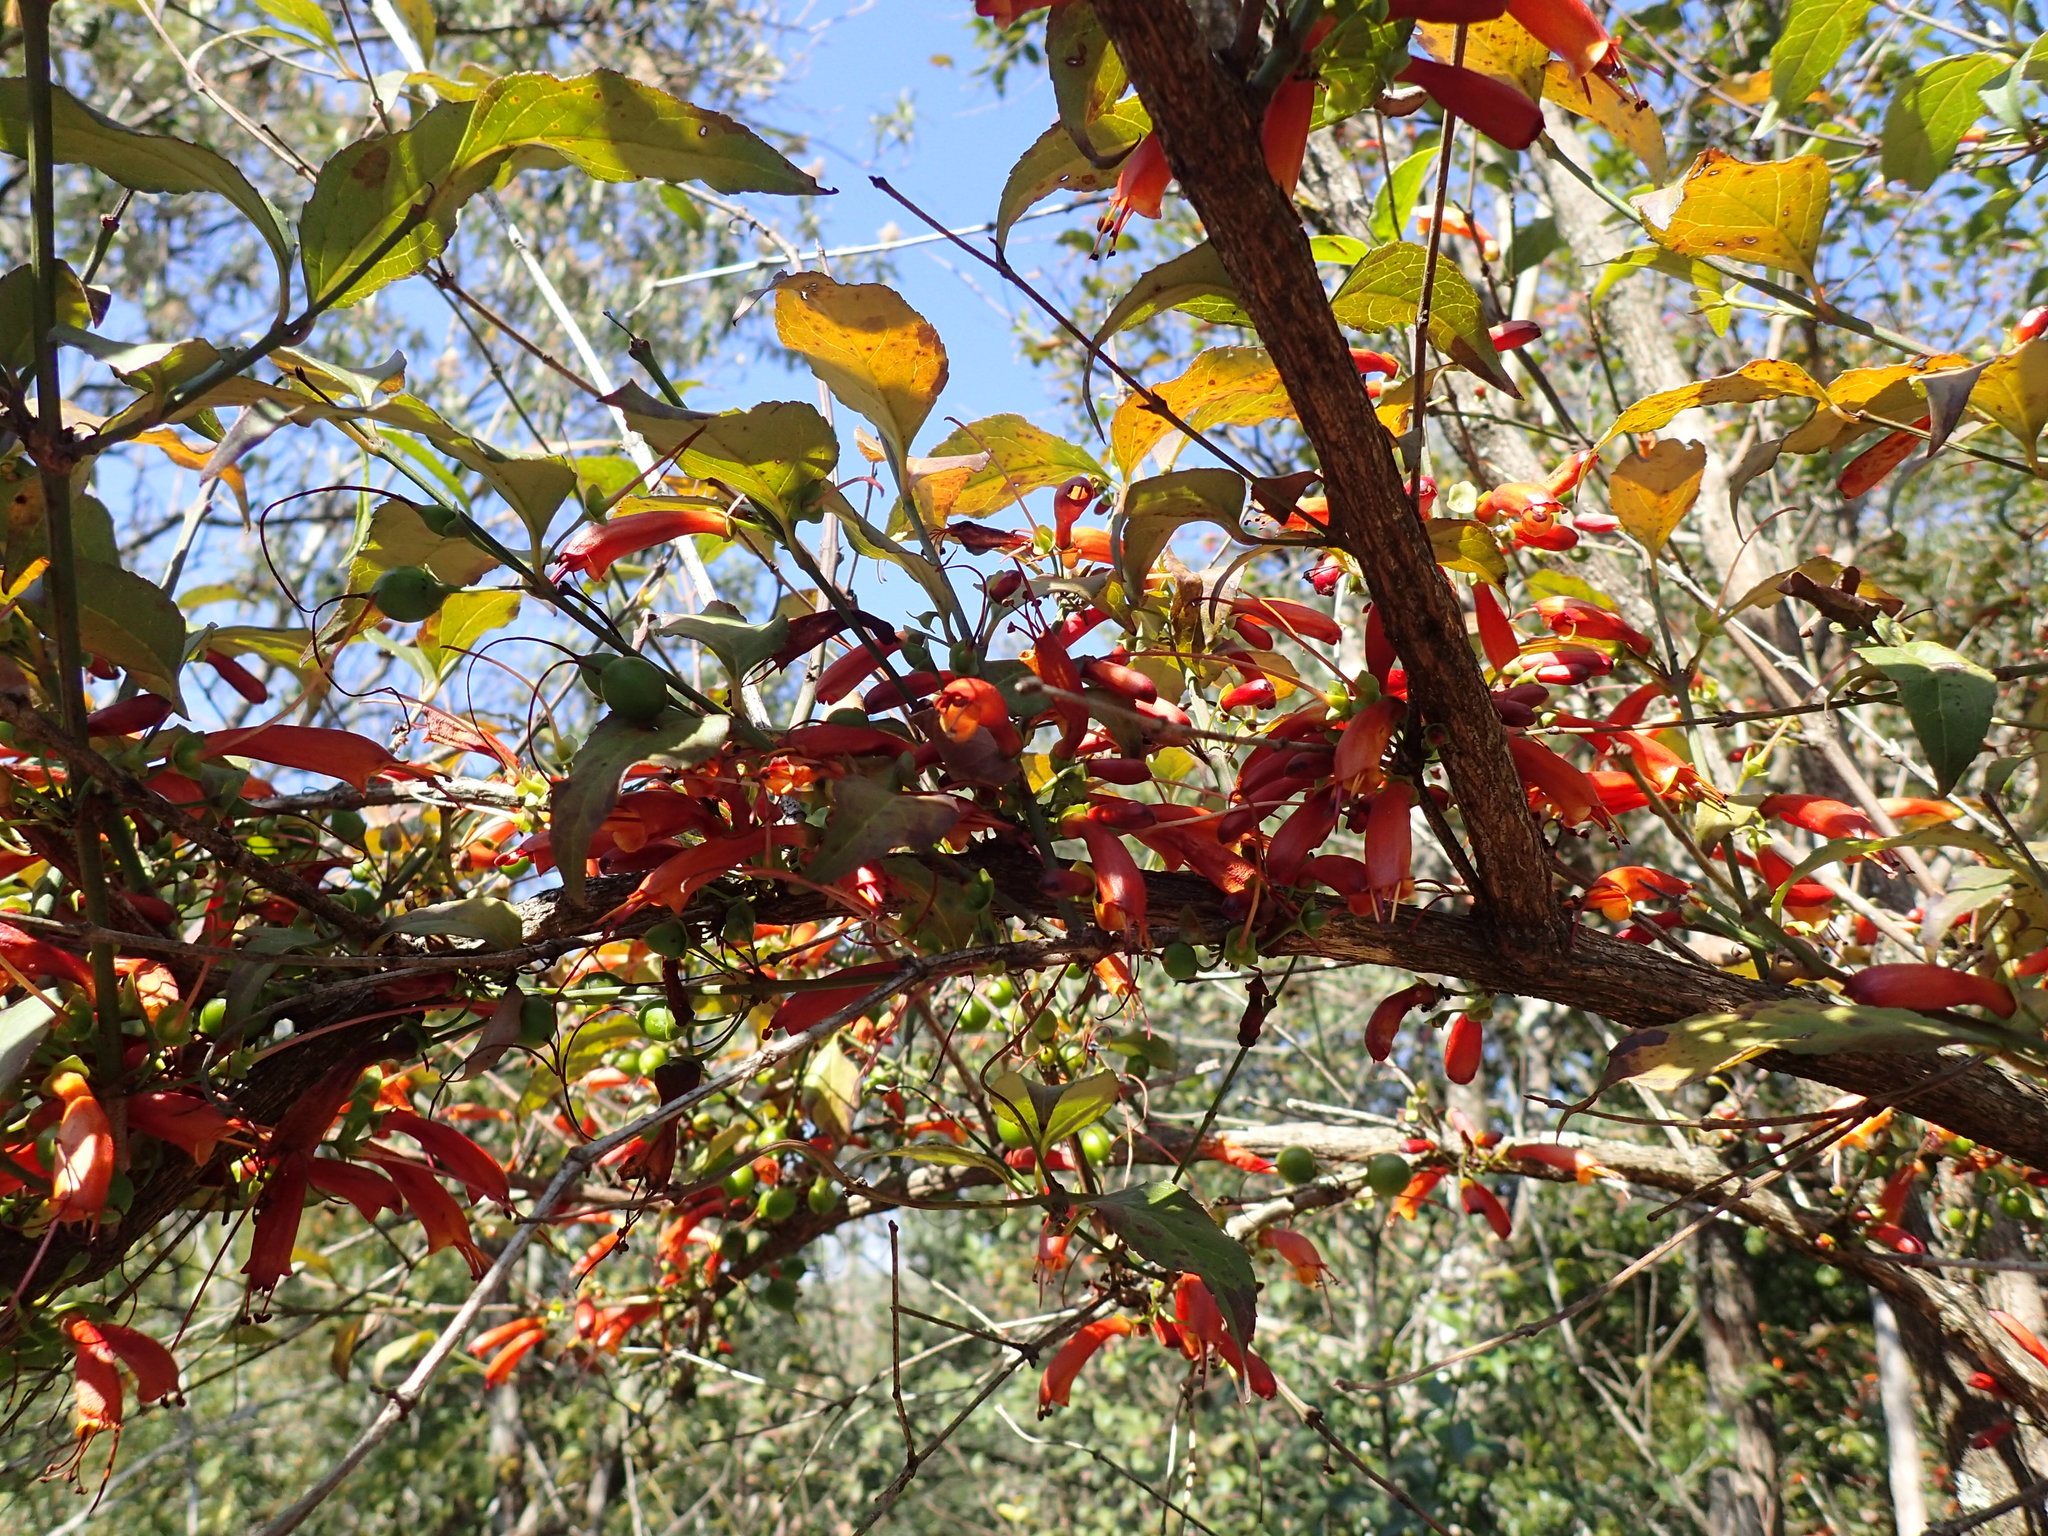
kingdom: Plantae
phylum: Tracheophyta
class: Magnoliopsida
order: Lamiales
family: Stilbaceae
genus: Halleria
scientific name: Halleria lucida
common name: Tree fuschia
